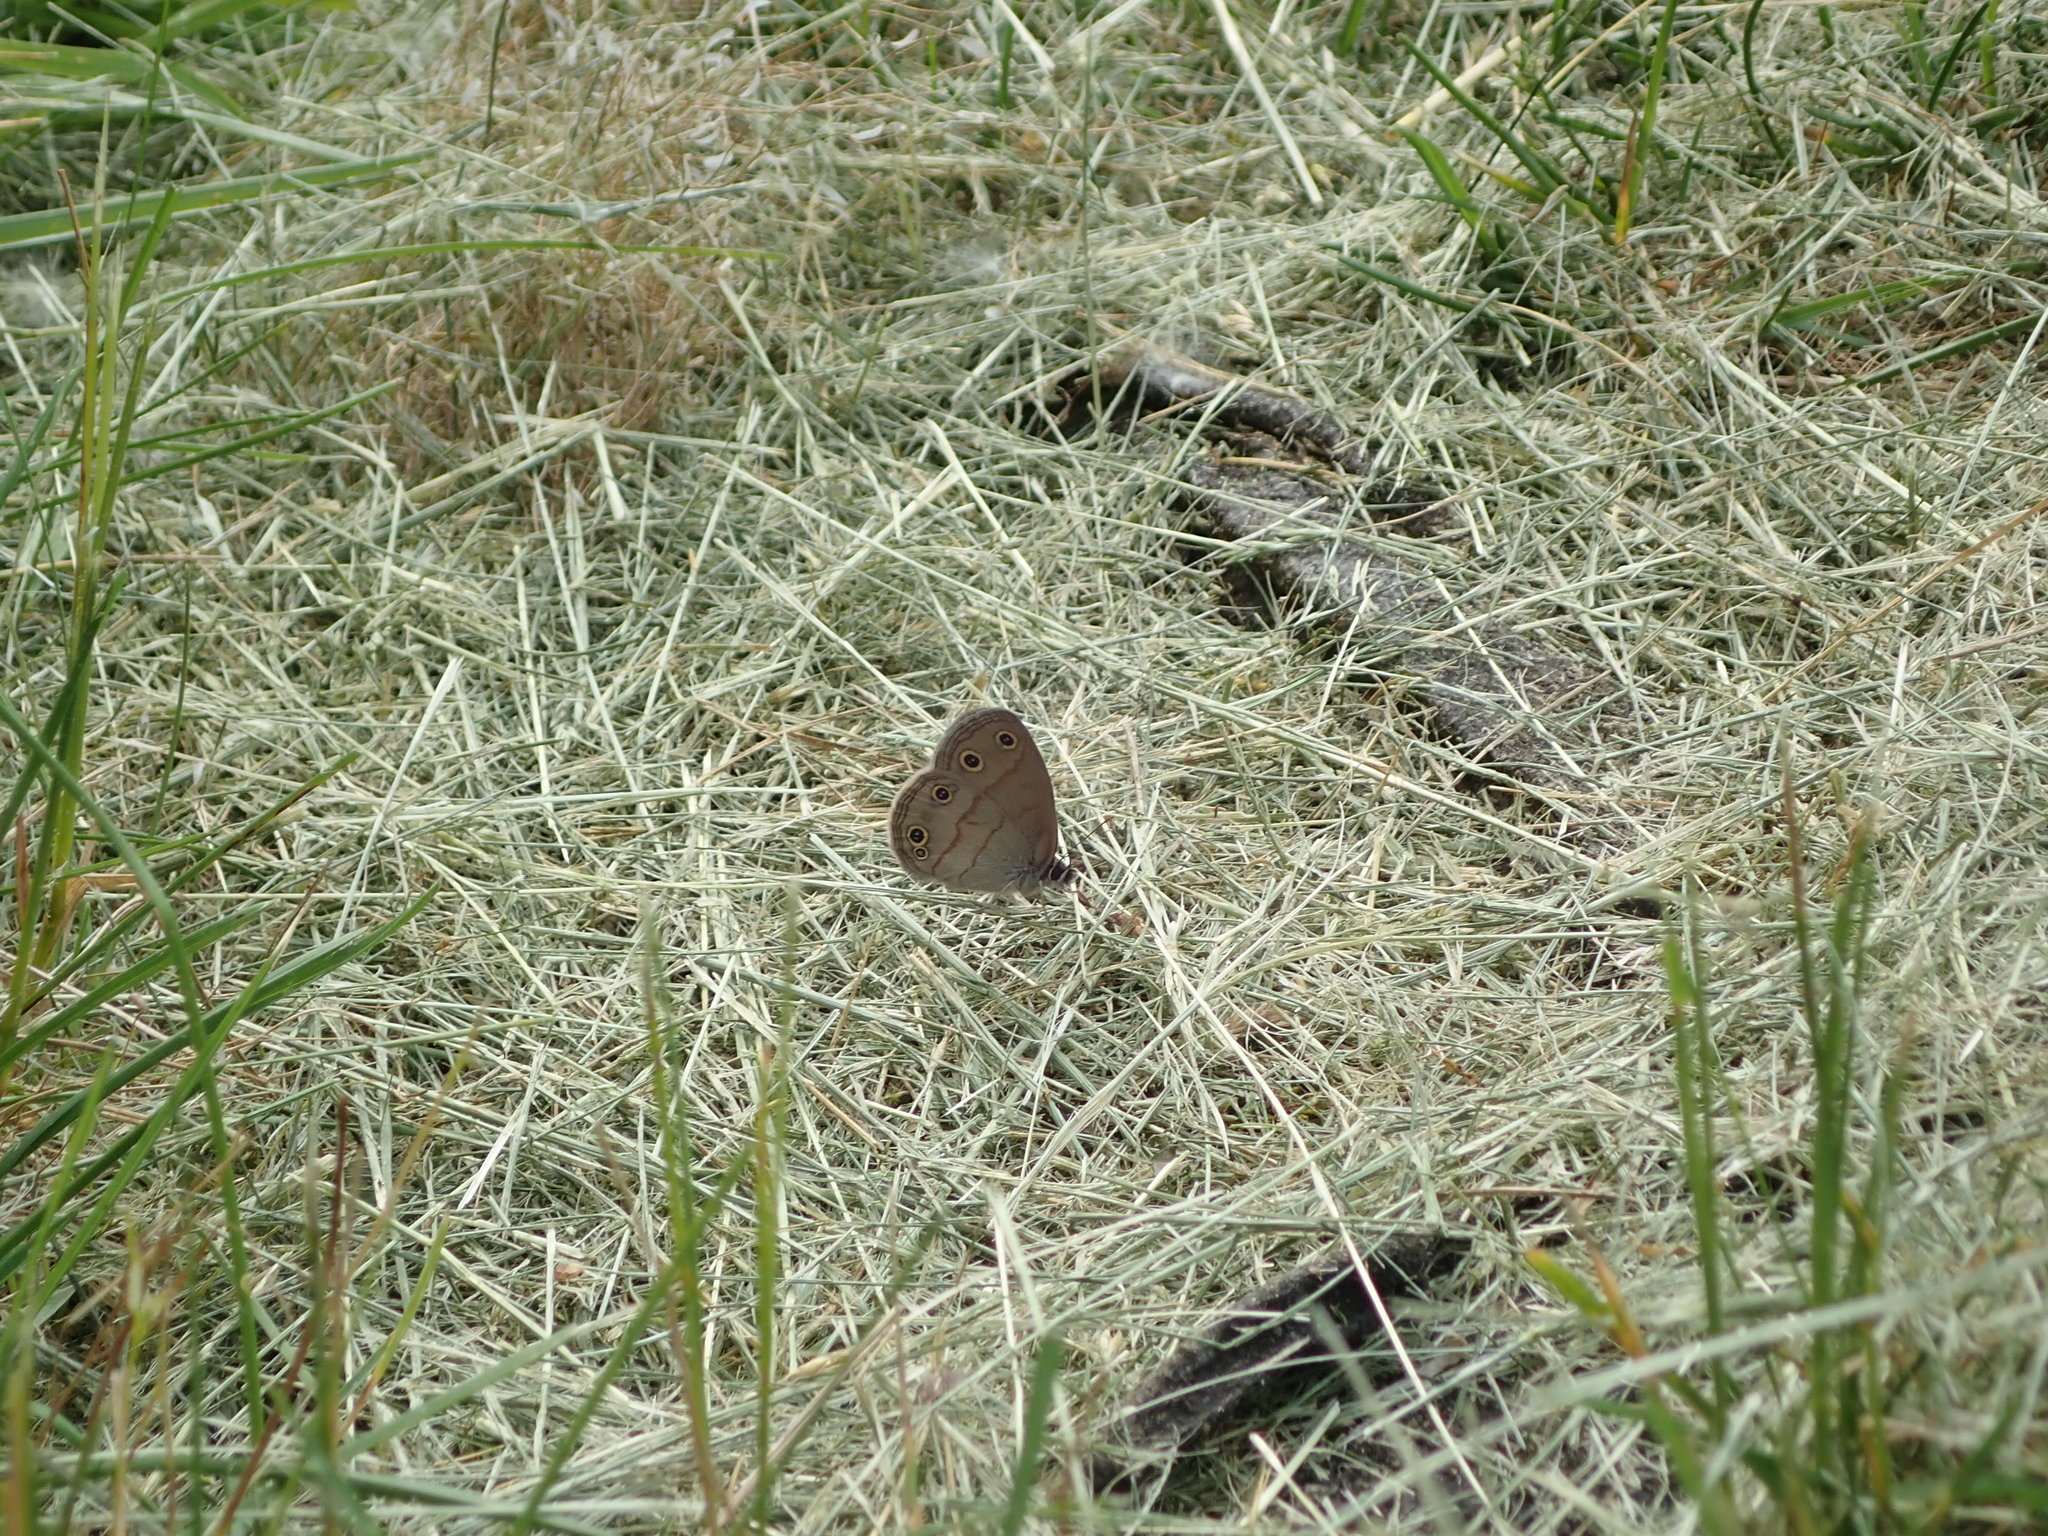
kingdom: Animalia
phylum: Arthropoda
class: Insecta
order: Lepidoptera
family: Nymphalidae
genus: Euptychia
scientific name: Euptychia cymela
